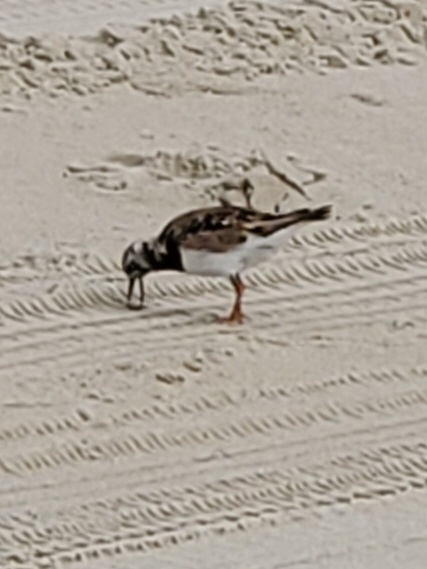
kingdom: Animalia
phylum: Chordata
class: Aves
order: Charadriiformes
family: Scolopacidae
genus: Arenaria
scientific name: Arenaria interpres
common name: Ruddy turnstone
